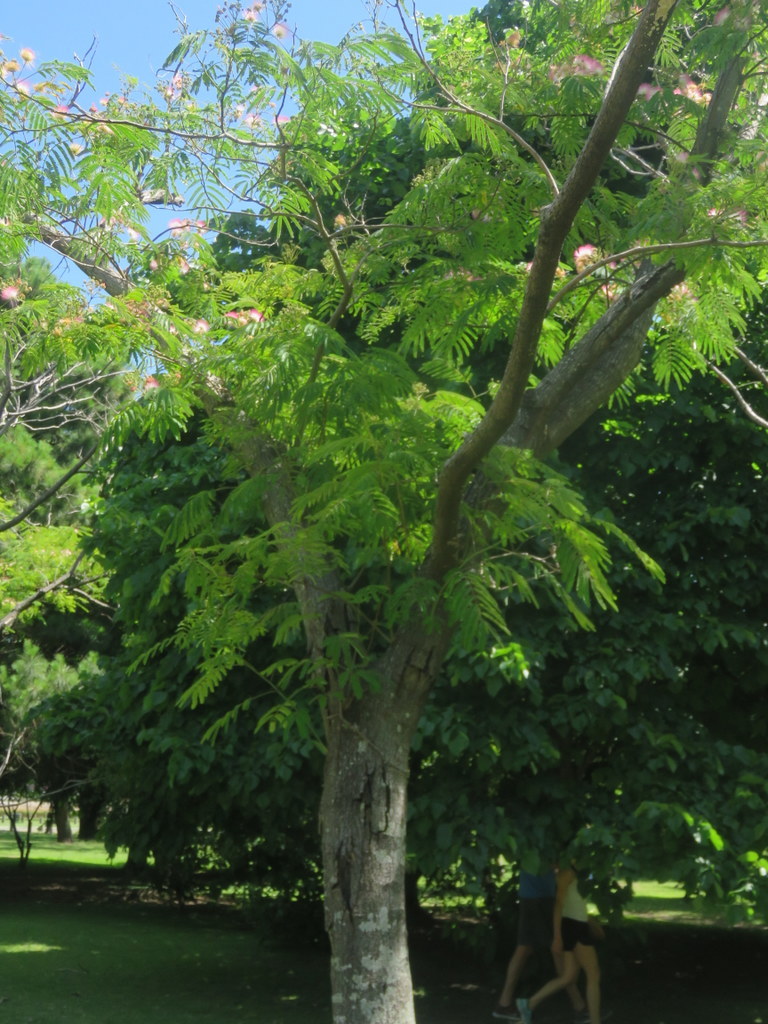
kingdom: Plantae
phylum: Tracheophyta
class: Magnoliopsida
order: Fabales
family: Fabaceae
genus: Albizia
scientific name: Albizia julibrissin
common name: Silktree
